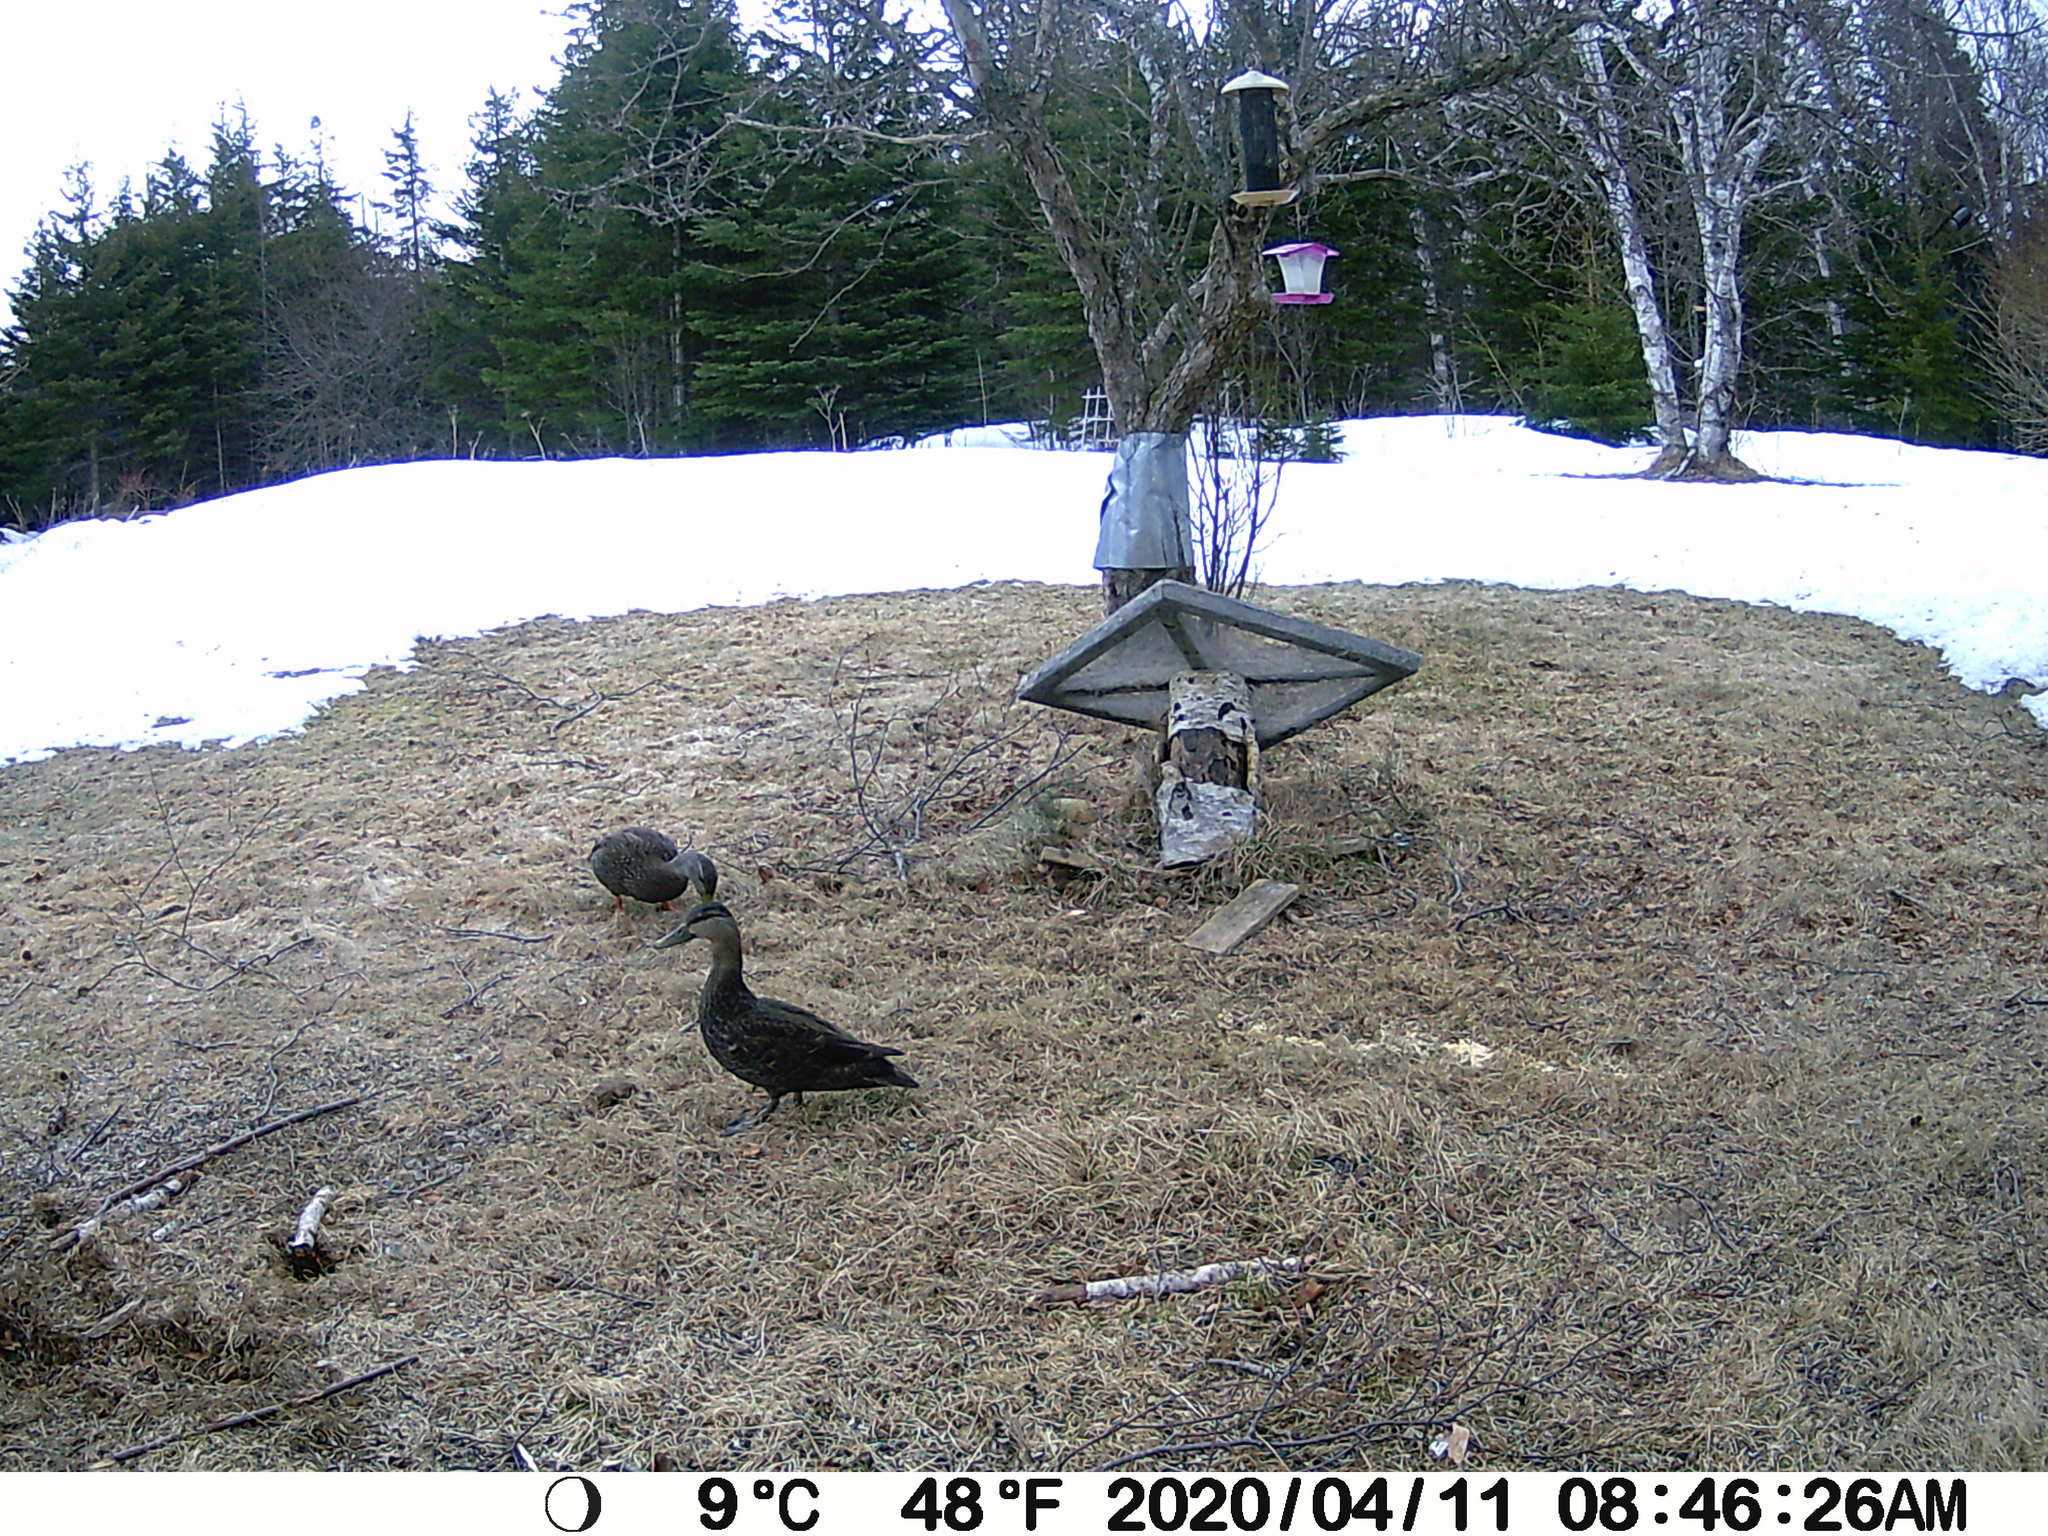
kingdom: Animalia
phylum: Chordata
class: Aves
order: Anseriformes
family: Anatidae
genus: Anas
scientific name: Anas rubripes
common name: American black duck
